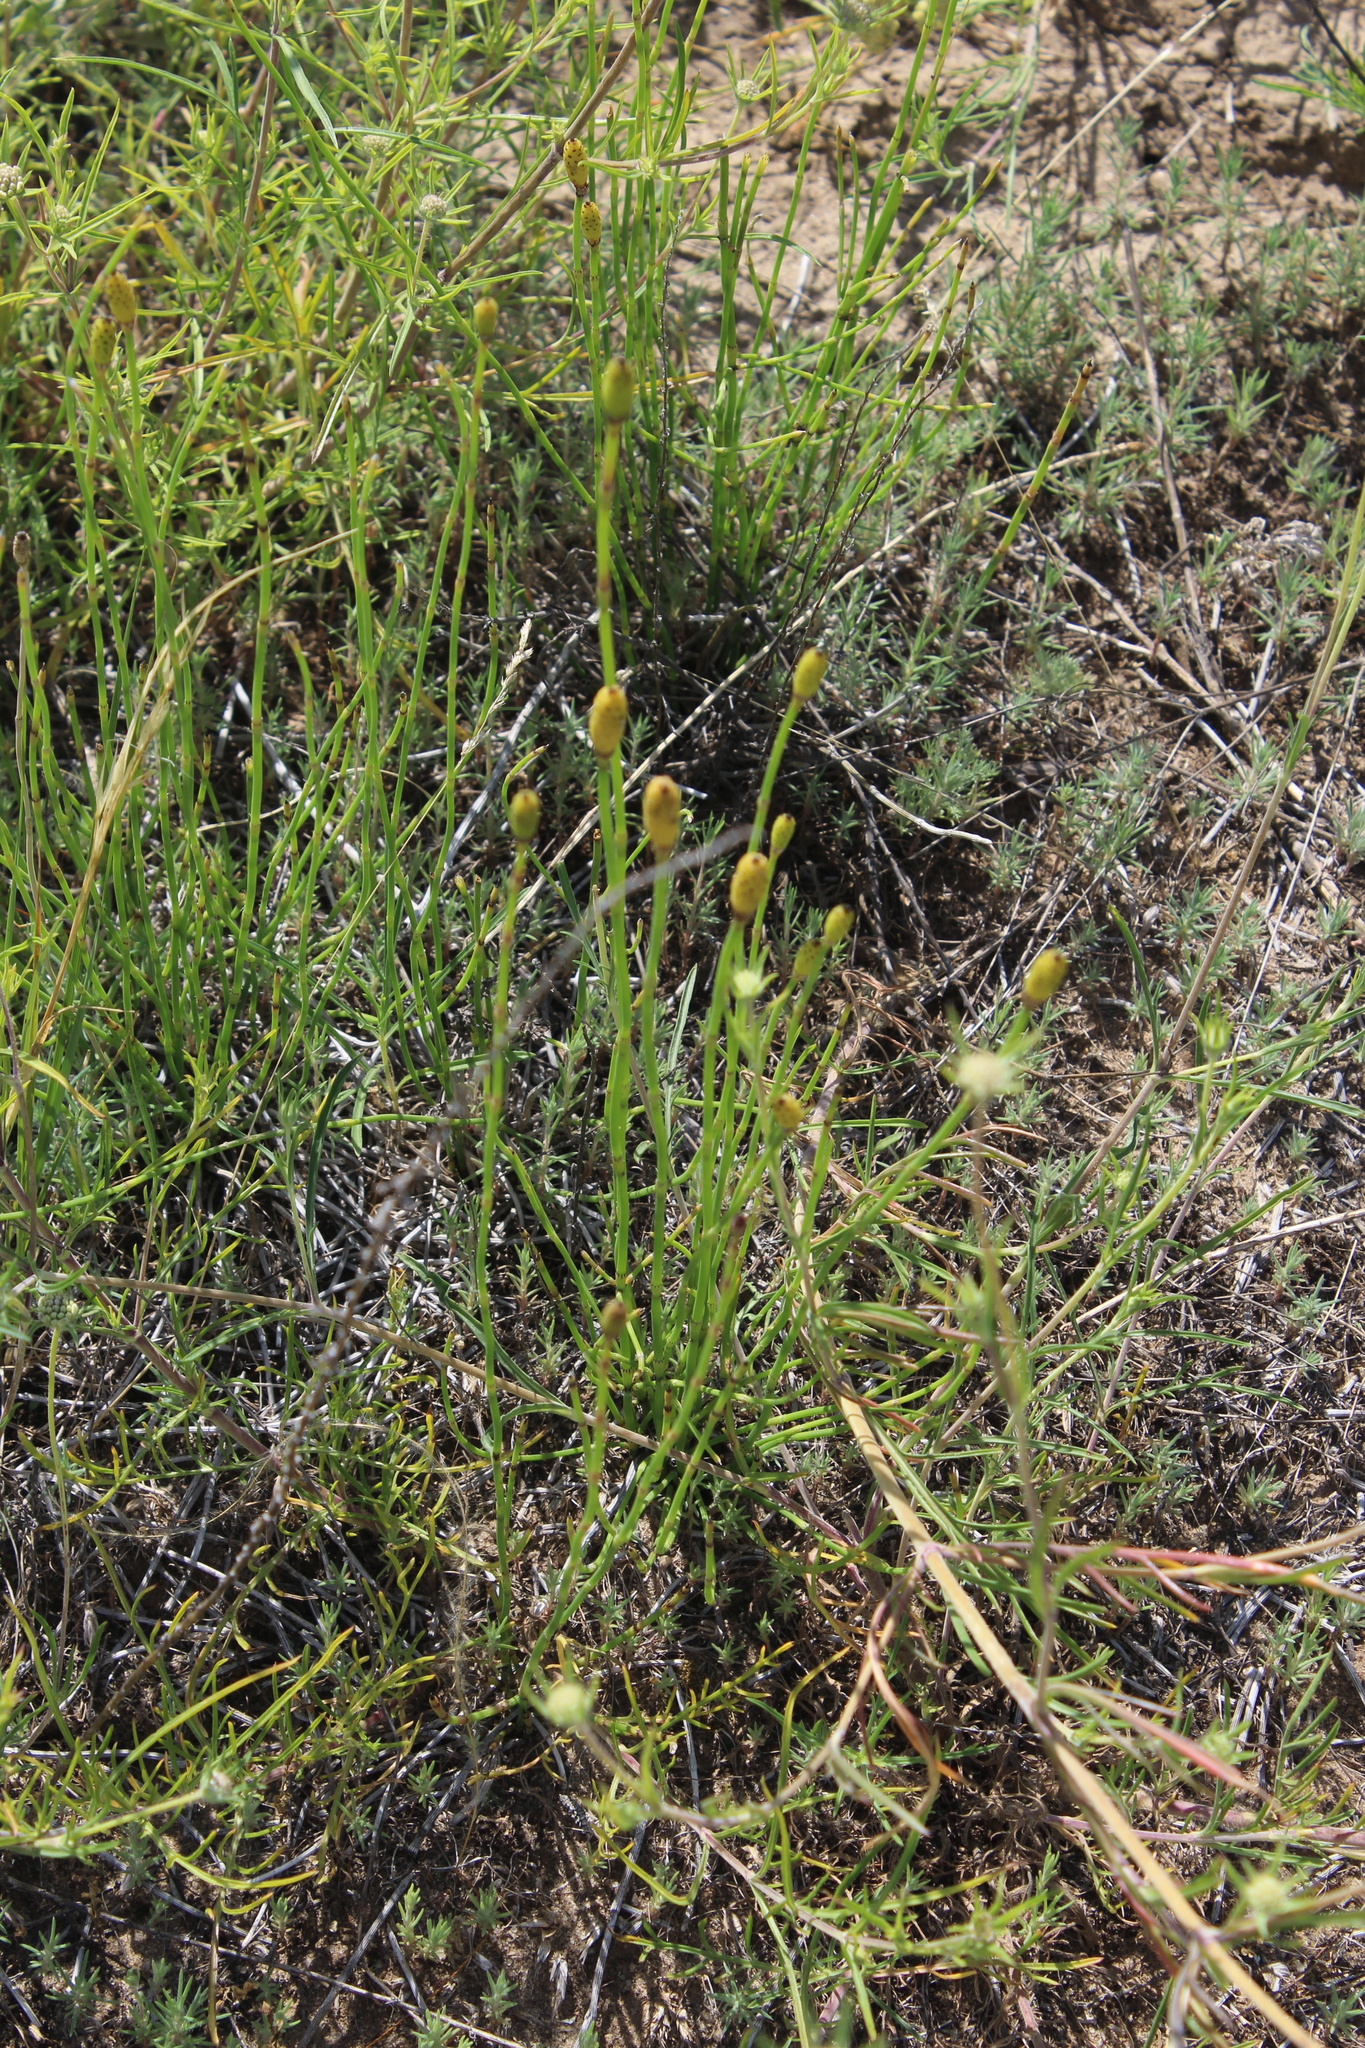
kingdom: Plantae
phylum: Tracheophyta
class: Polypodiopsida
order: Equisetales
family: Equisetaceae
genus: Equisetum
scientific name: Equisetum ramosissimum
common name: Branched horsetail
